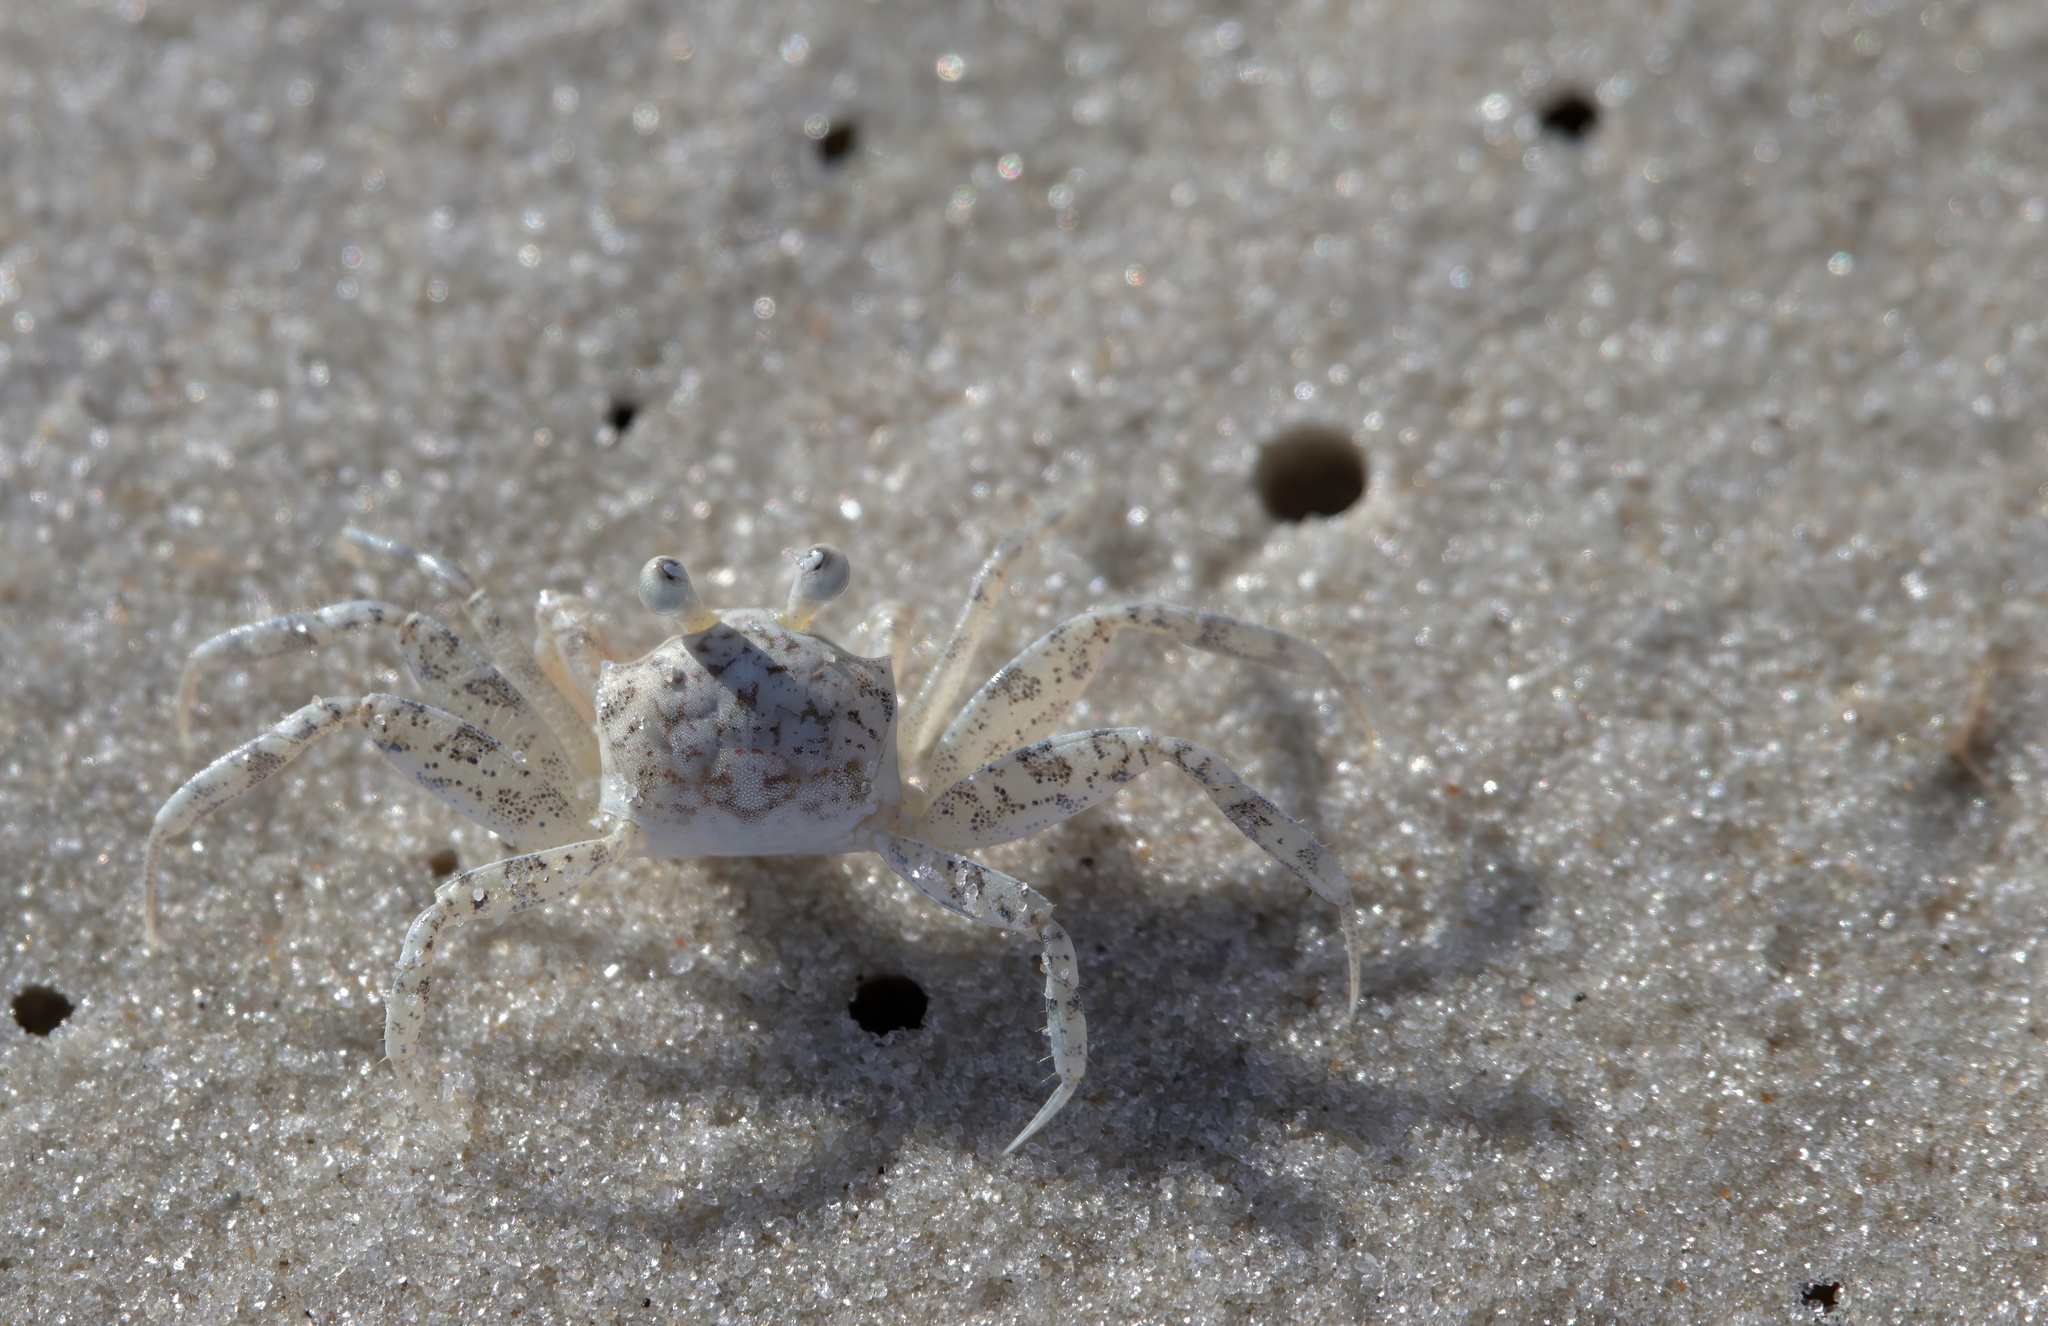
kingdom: Animalia
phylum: Arthropoda
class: Malacostraca
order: Decapoda
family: Ocypodidae
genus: Ocypode
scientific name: Ocypode quadrata
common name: Ghost crab
